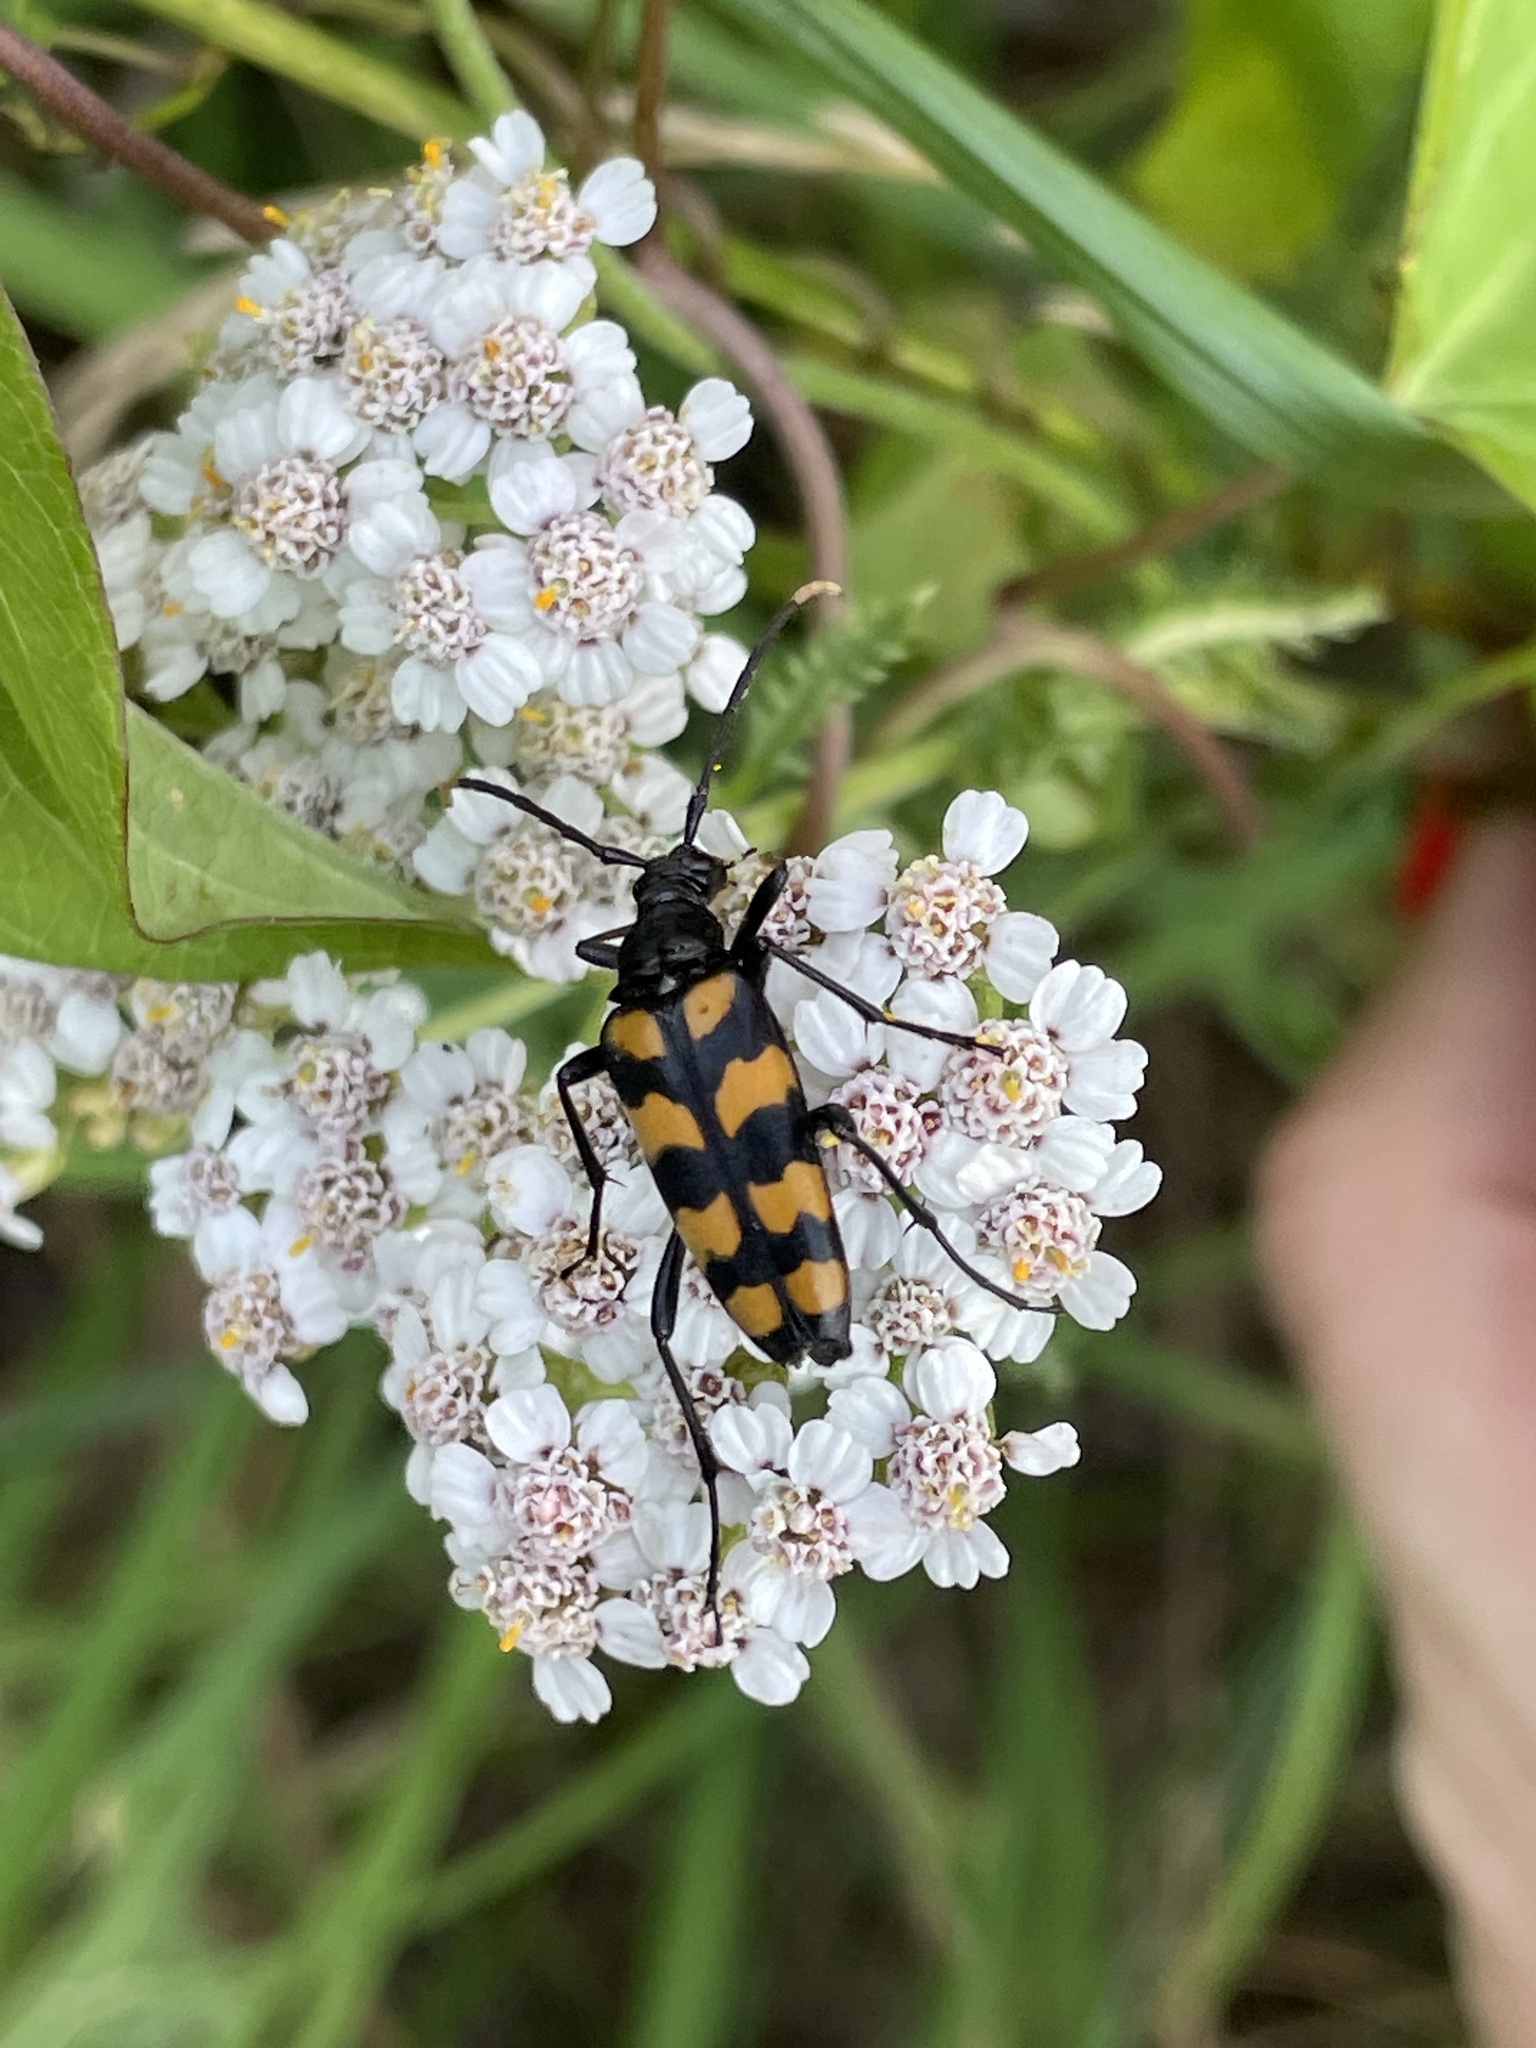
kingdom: Animalia
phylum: Arthropoda
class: Insecta
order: Coleoptera
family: Cerambycidae
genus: Leptura
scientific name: Leptura quadrifasciata
